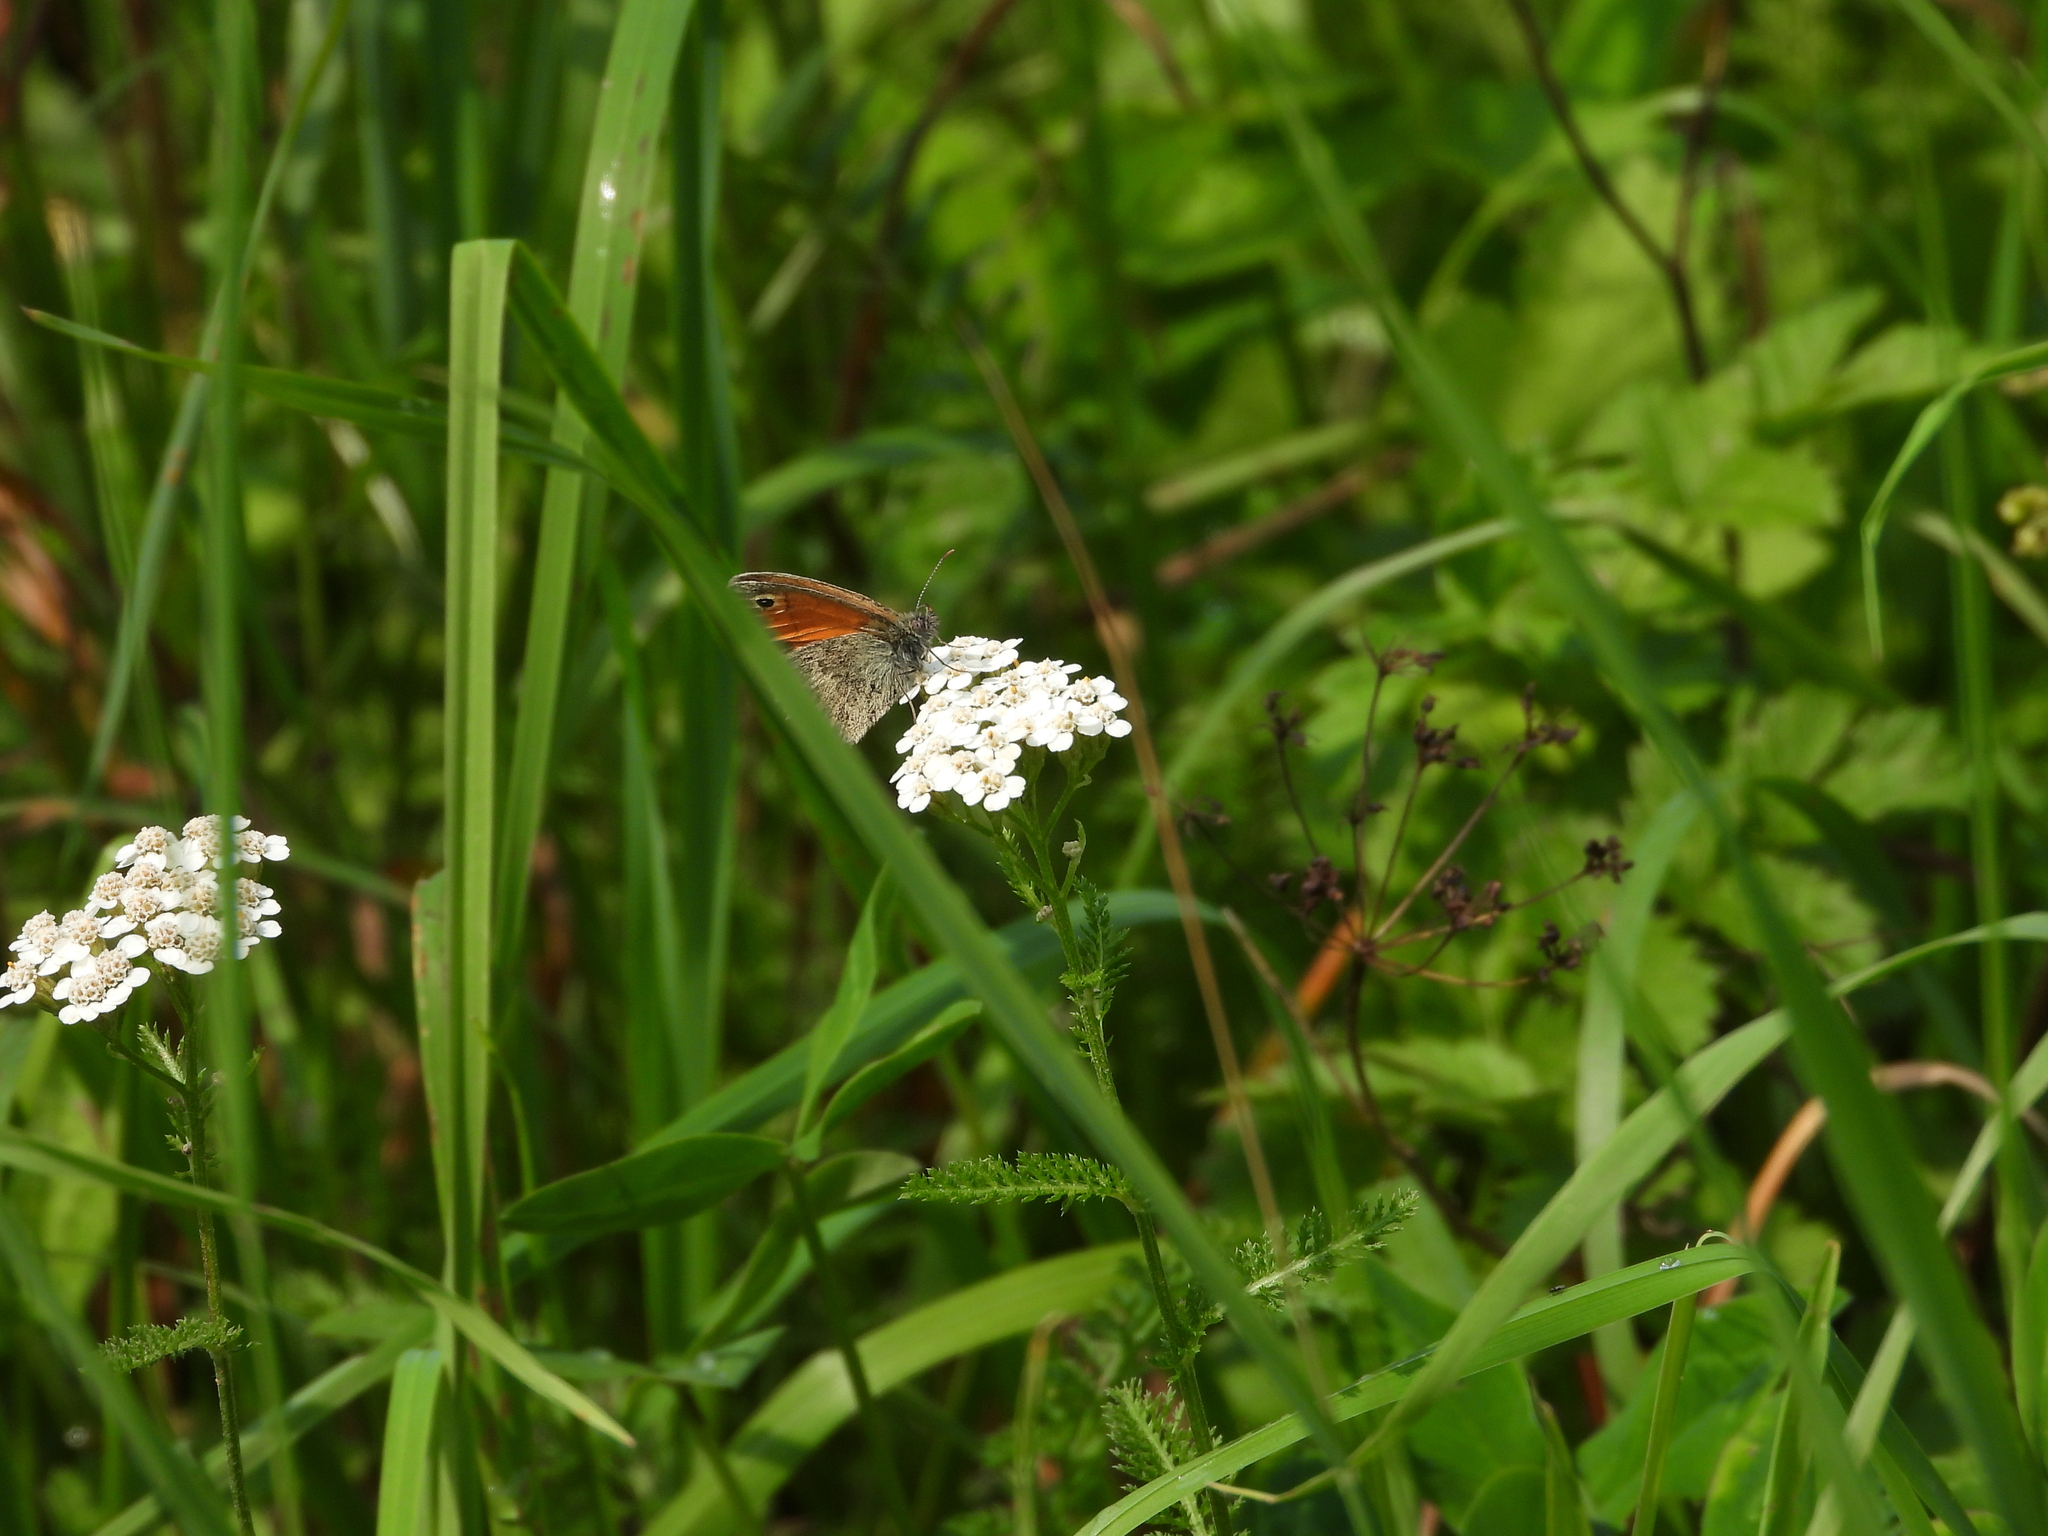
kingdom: Animalia
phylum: Arthropoda
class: Insecta
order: Lepidoptera
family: Nymphalidae
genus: Coenonympha
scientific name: Coenonympha pamphilus
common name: Small heath
